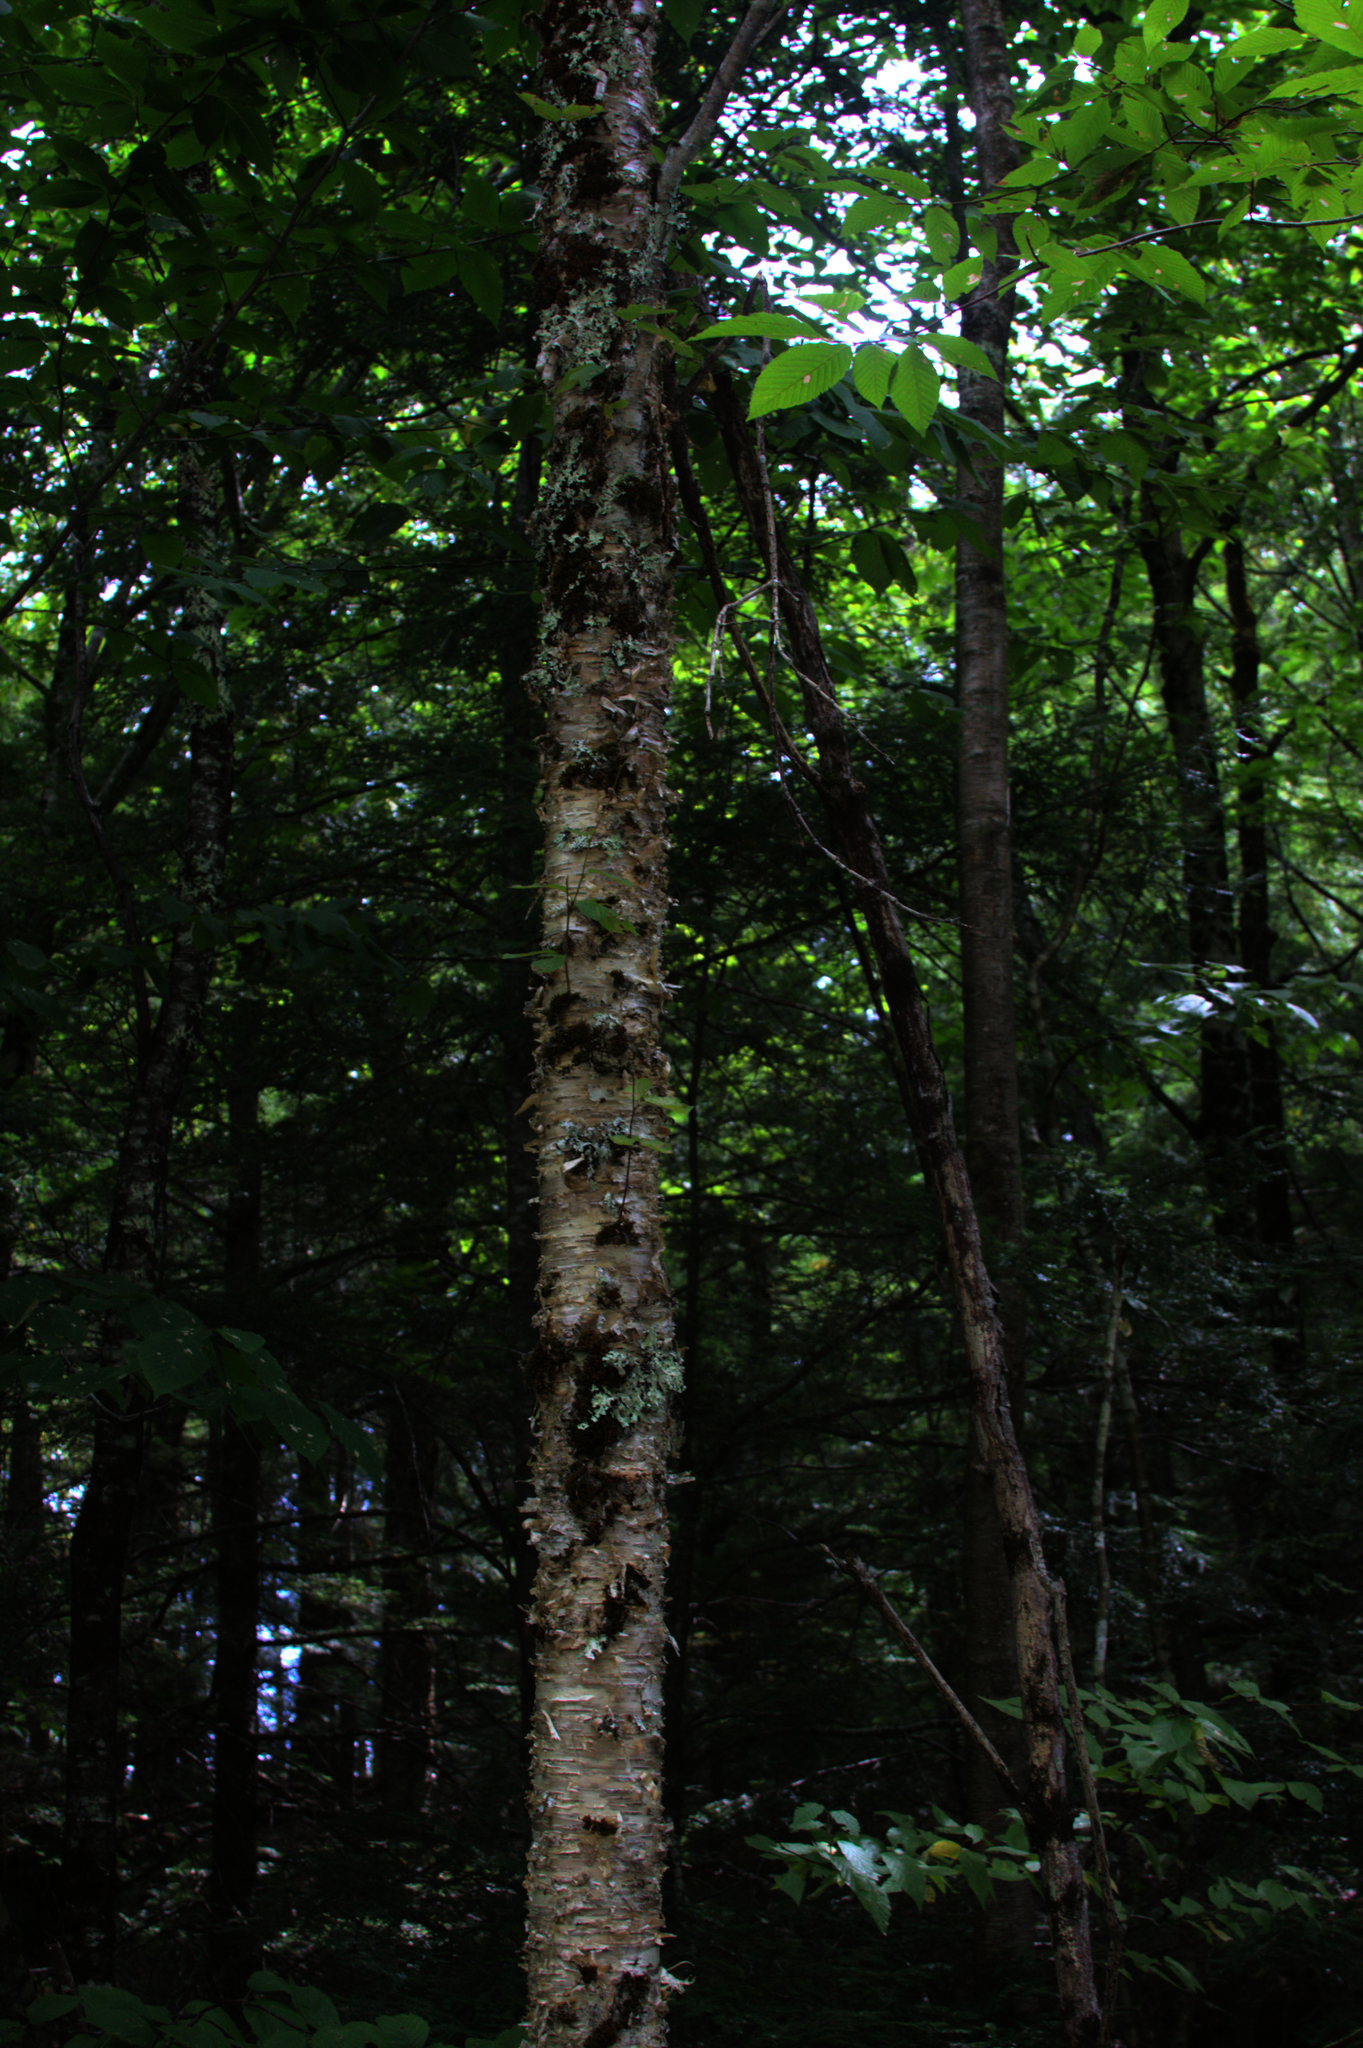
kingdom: Plantae
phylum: Tracheophyta
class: Magnoliopsida
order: Fagales
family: Betulaceae
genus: Betula
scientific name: Betula alleghaniensis
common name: Yellow birch
